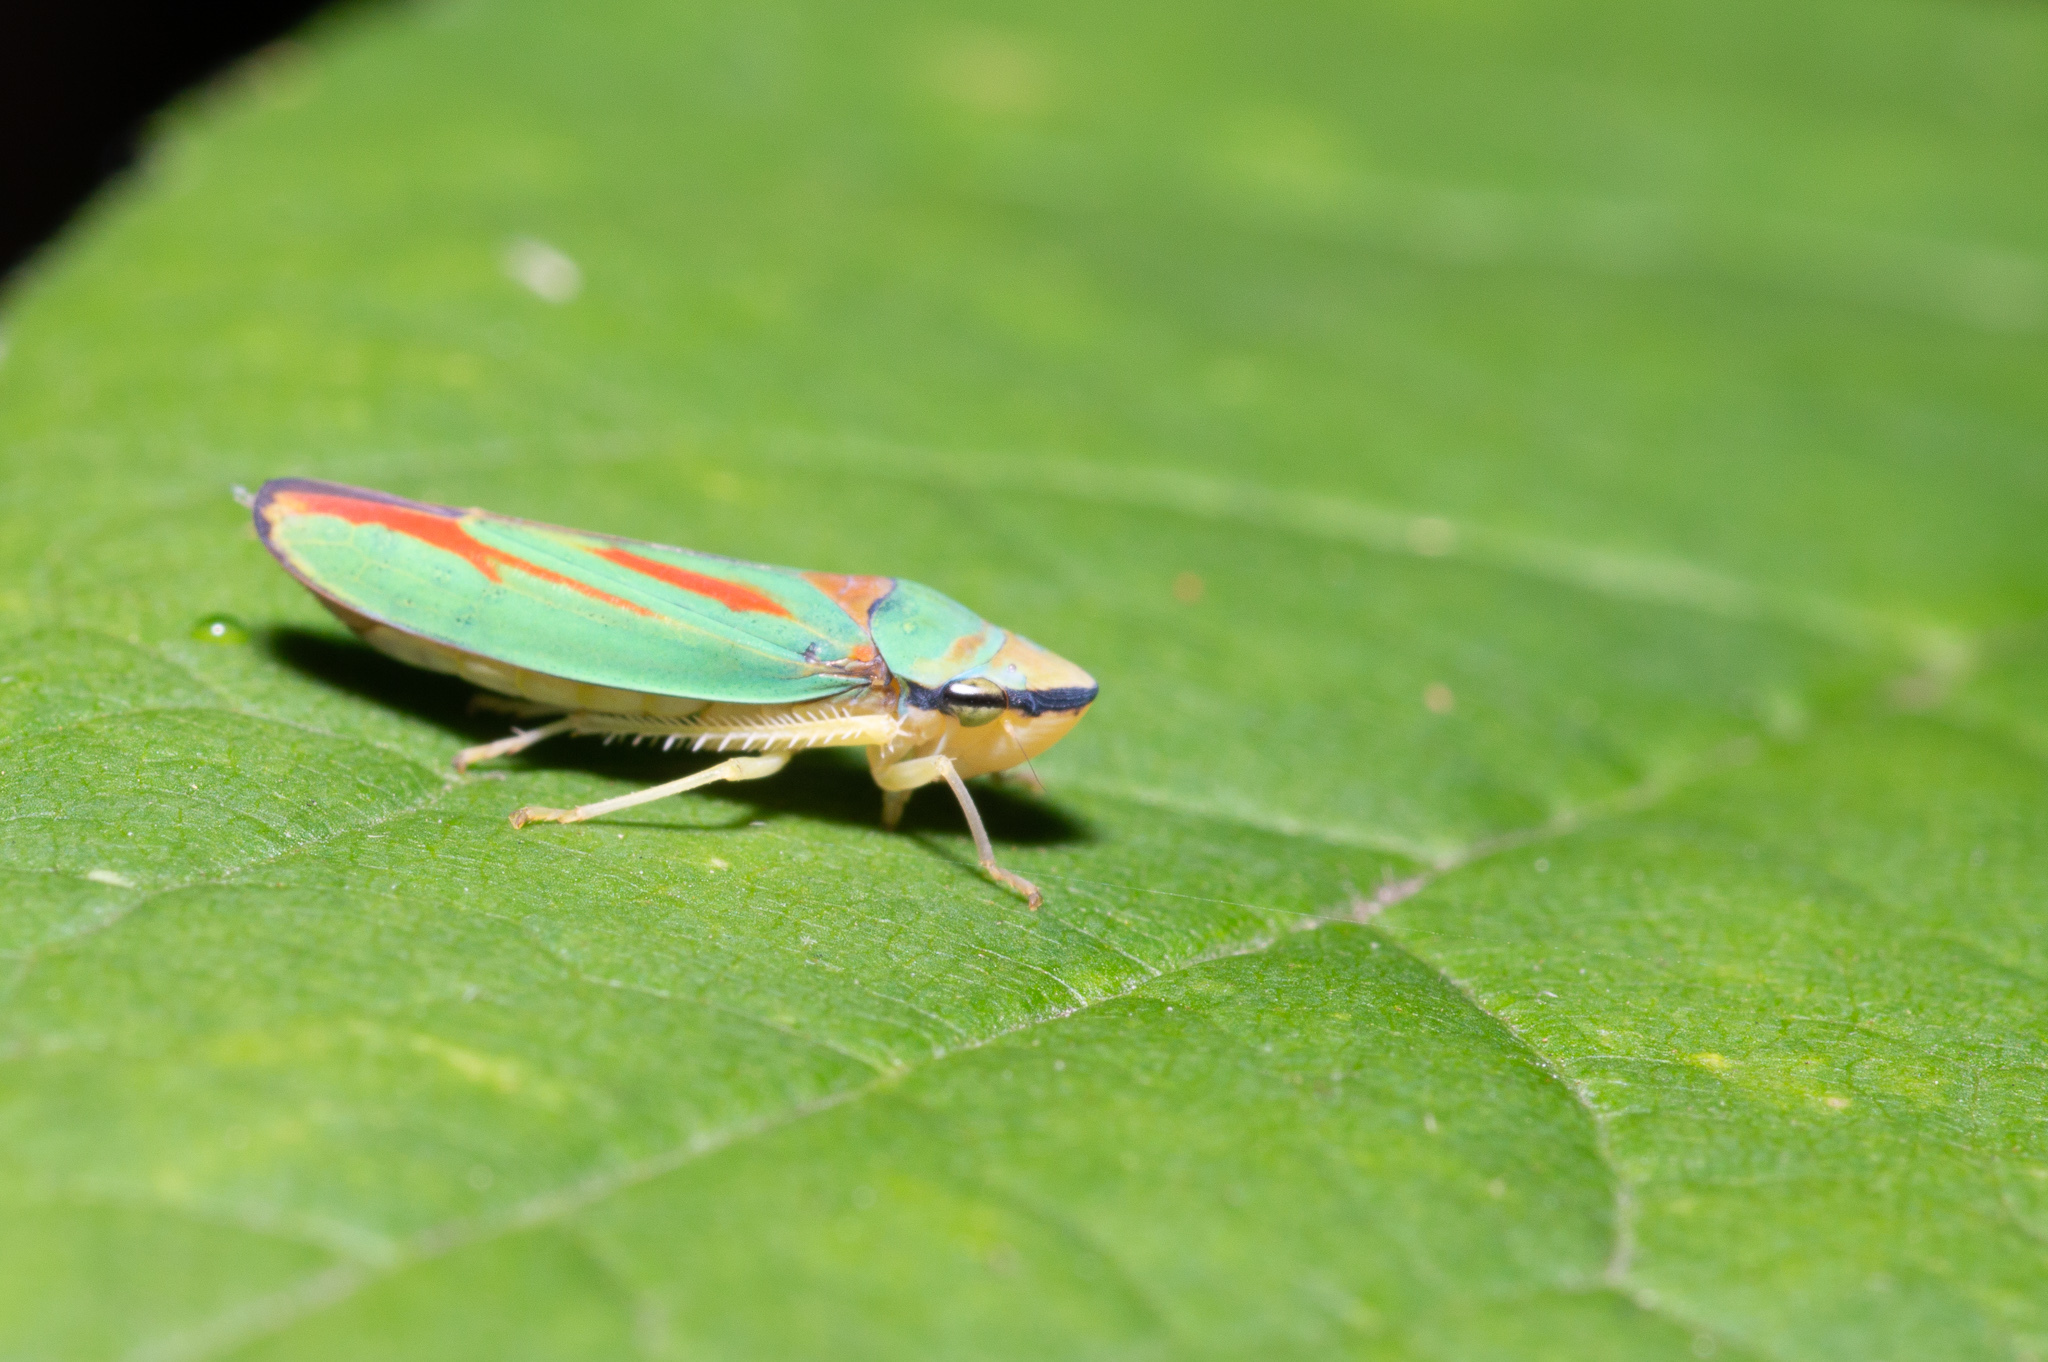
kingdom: Animalia
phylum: Arthropoda
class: Insecta
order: Hemiptera
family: Cicadellidae
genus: Graphocephala
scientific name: Graphocephala fennahi
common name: Rhododendron leafhopper
